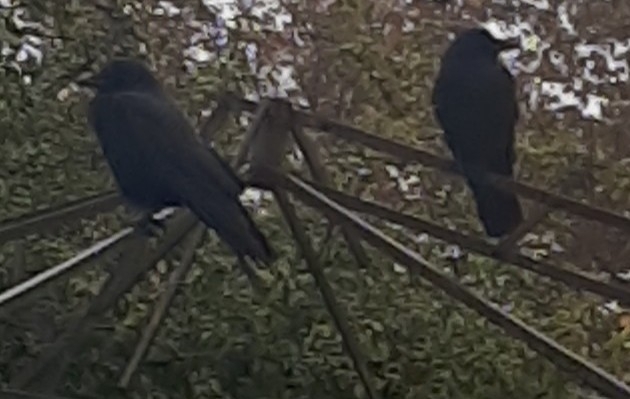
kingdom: Animalia
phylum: Chordata
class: Aves
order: Passeriformes
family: Corvidae
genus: Corvus
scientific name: Corvus brachyrhynchos
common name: American crow
